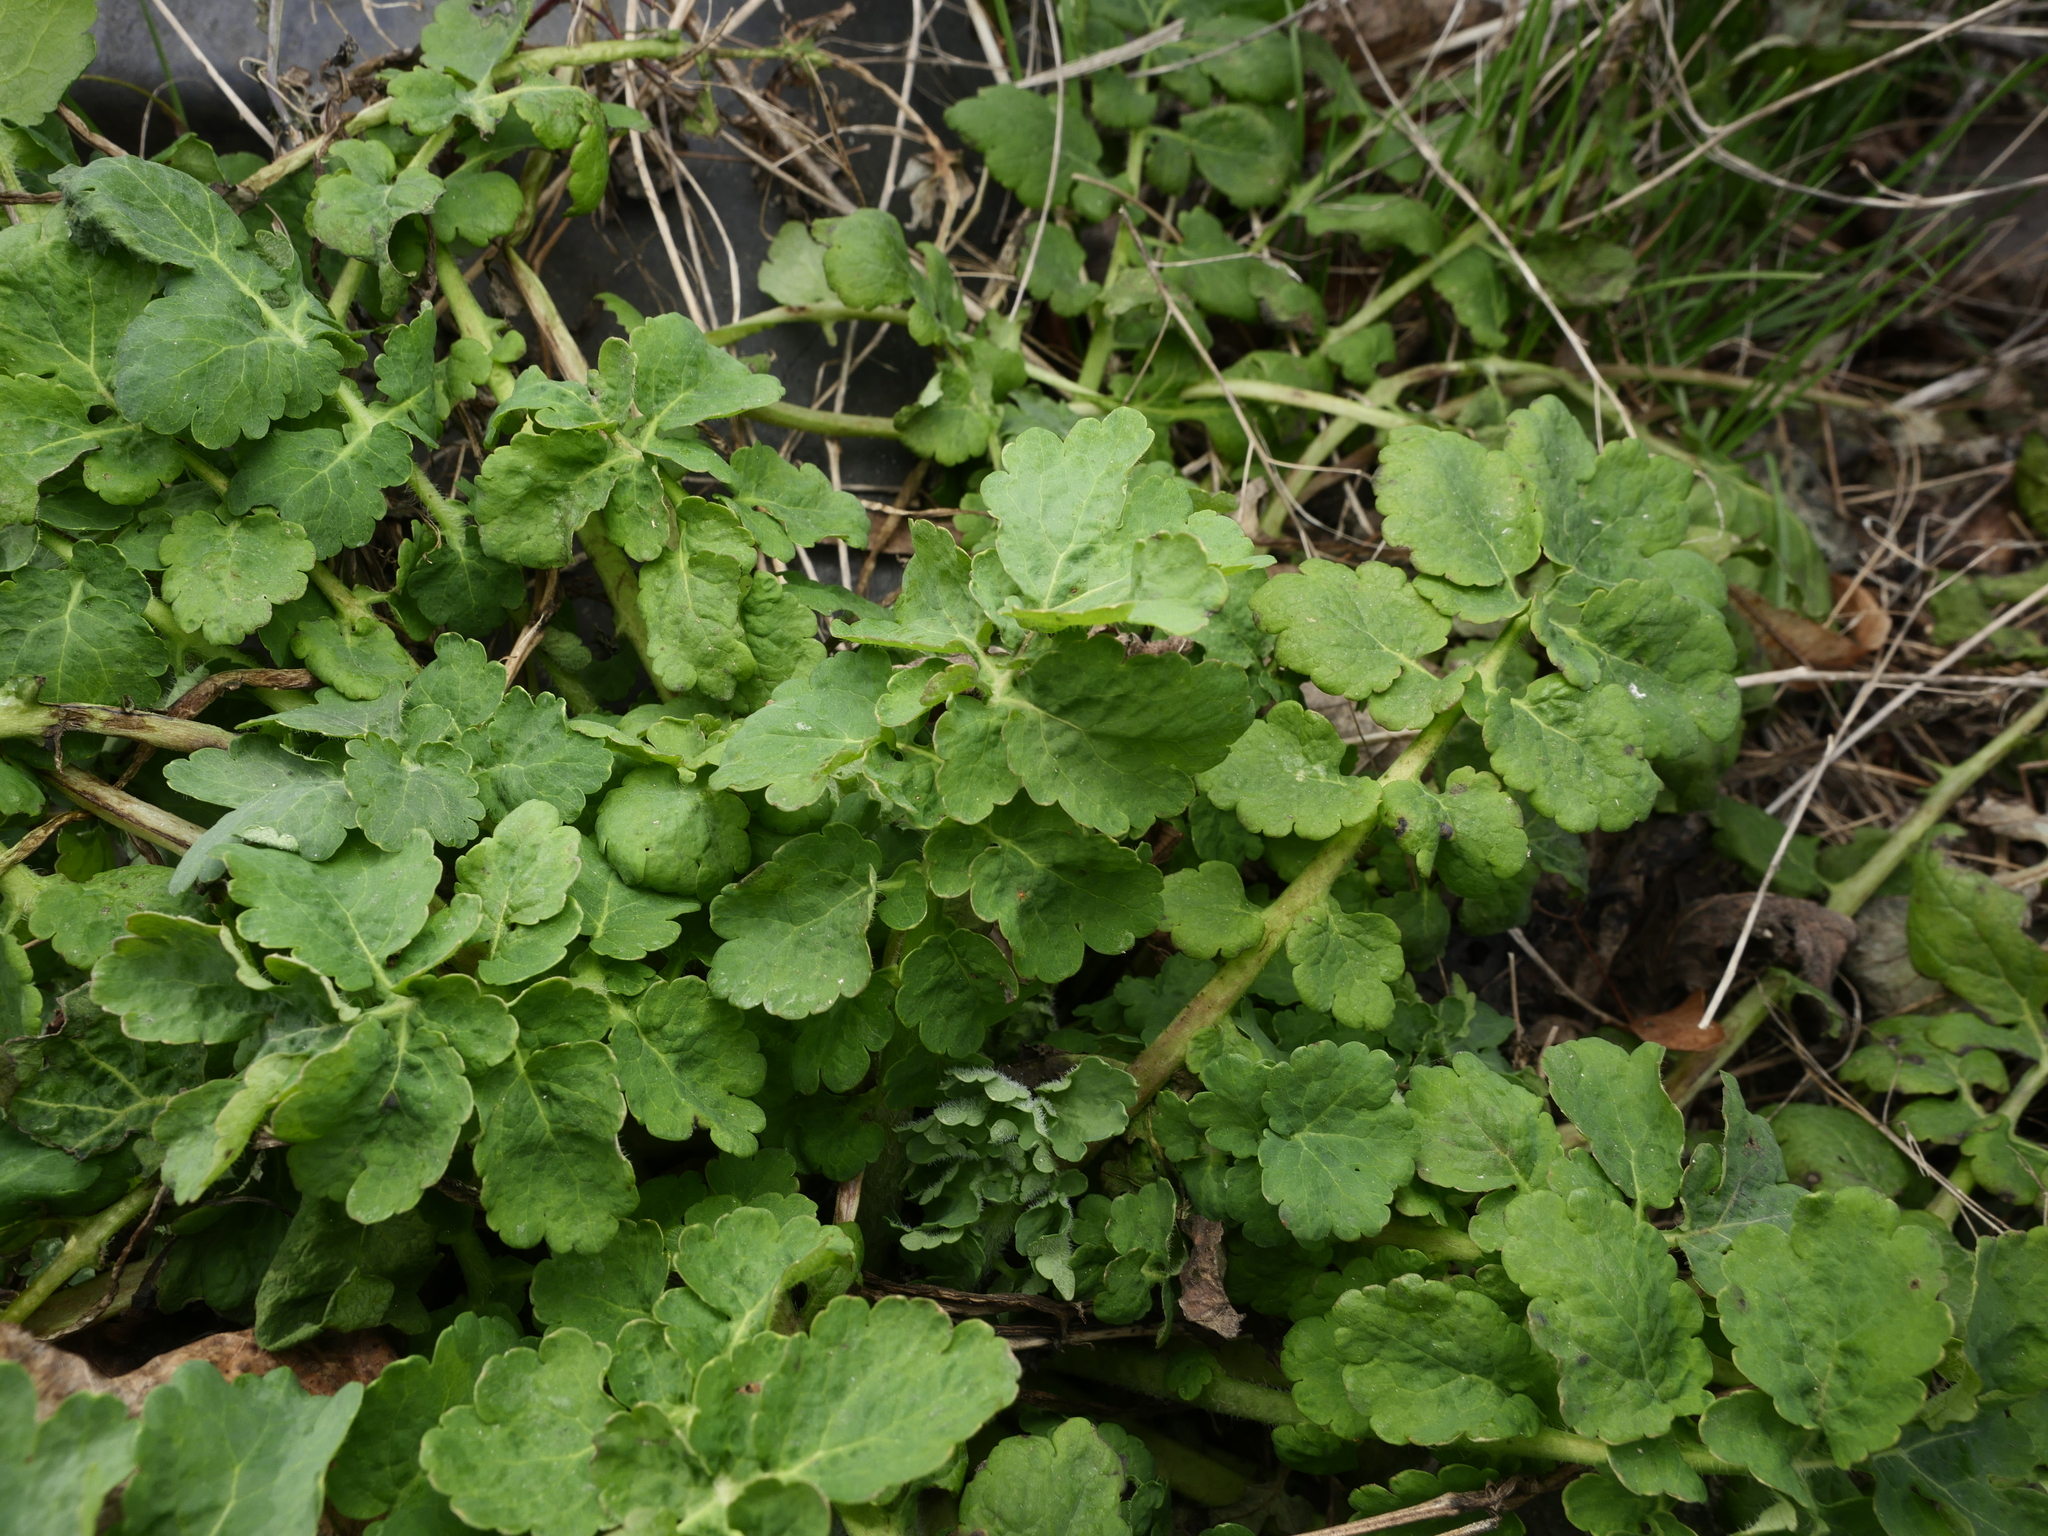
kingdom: Plantae
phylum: Tracheophyta
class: Magnoliopsida
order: Ranunculales
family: Papaveraceae
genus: Chelidonium
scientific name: Chelidonium majus
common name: Greater celandine
